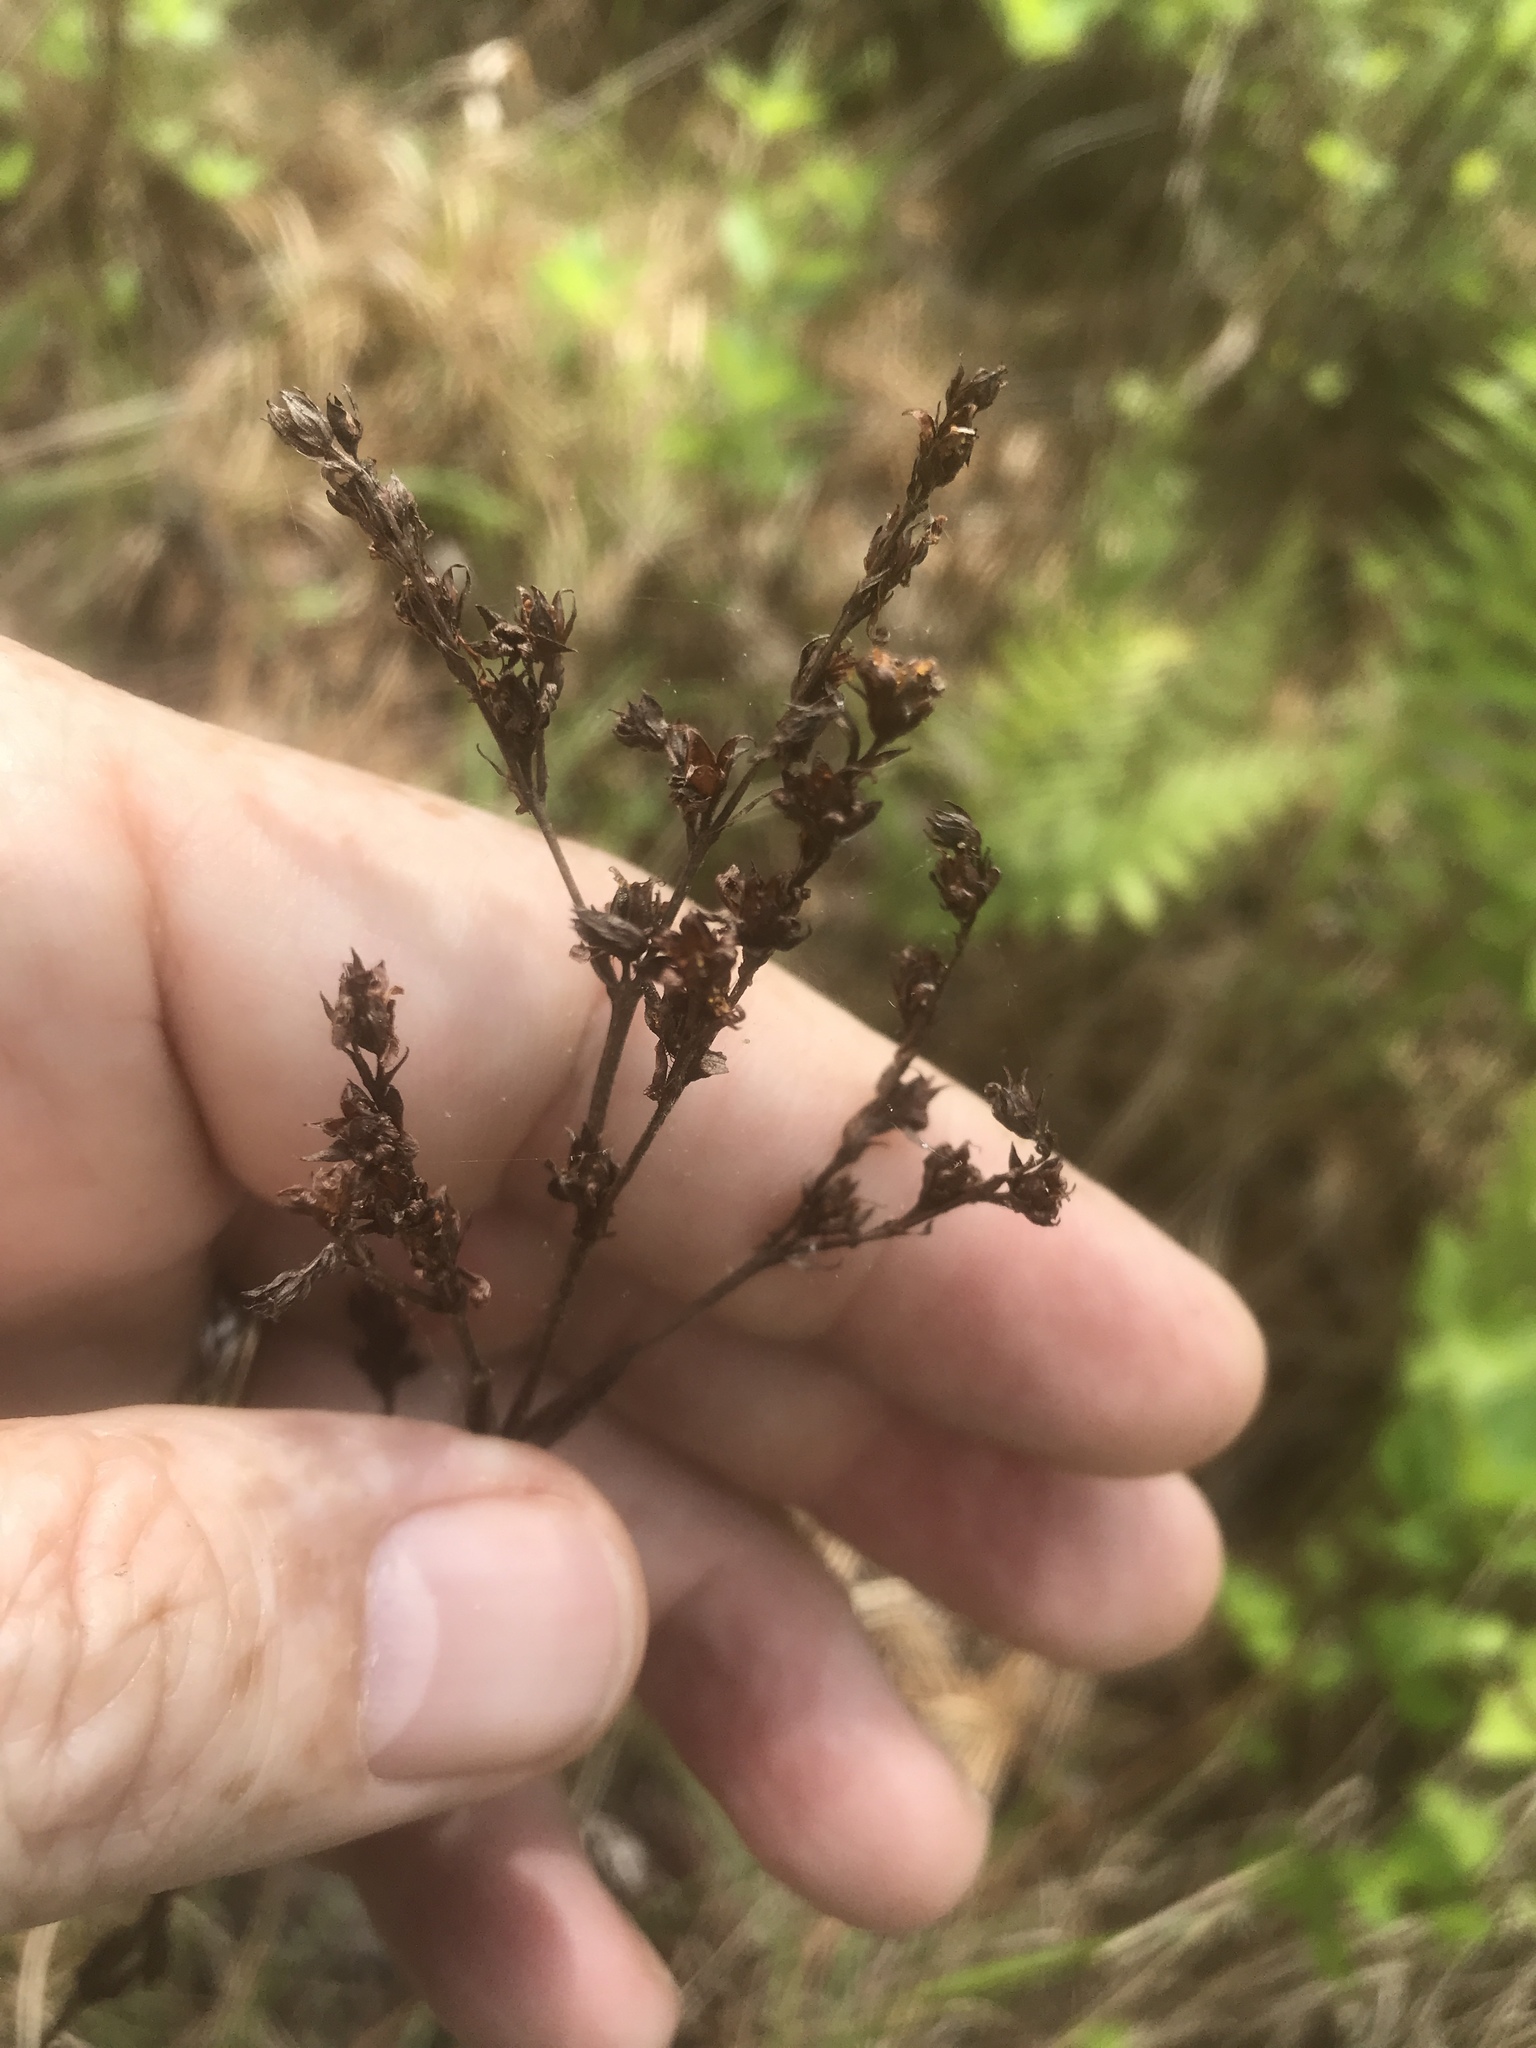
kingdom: Plantae
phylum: Tracheophyta
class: Magnoliopsida
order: Malpighiales
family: Hypericaceae
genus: Hypericum
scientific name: Hypericum setosum
